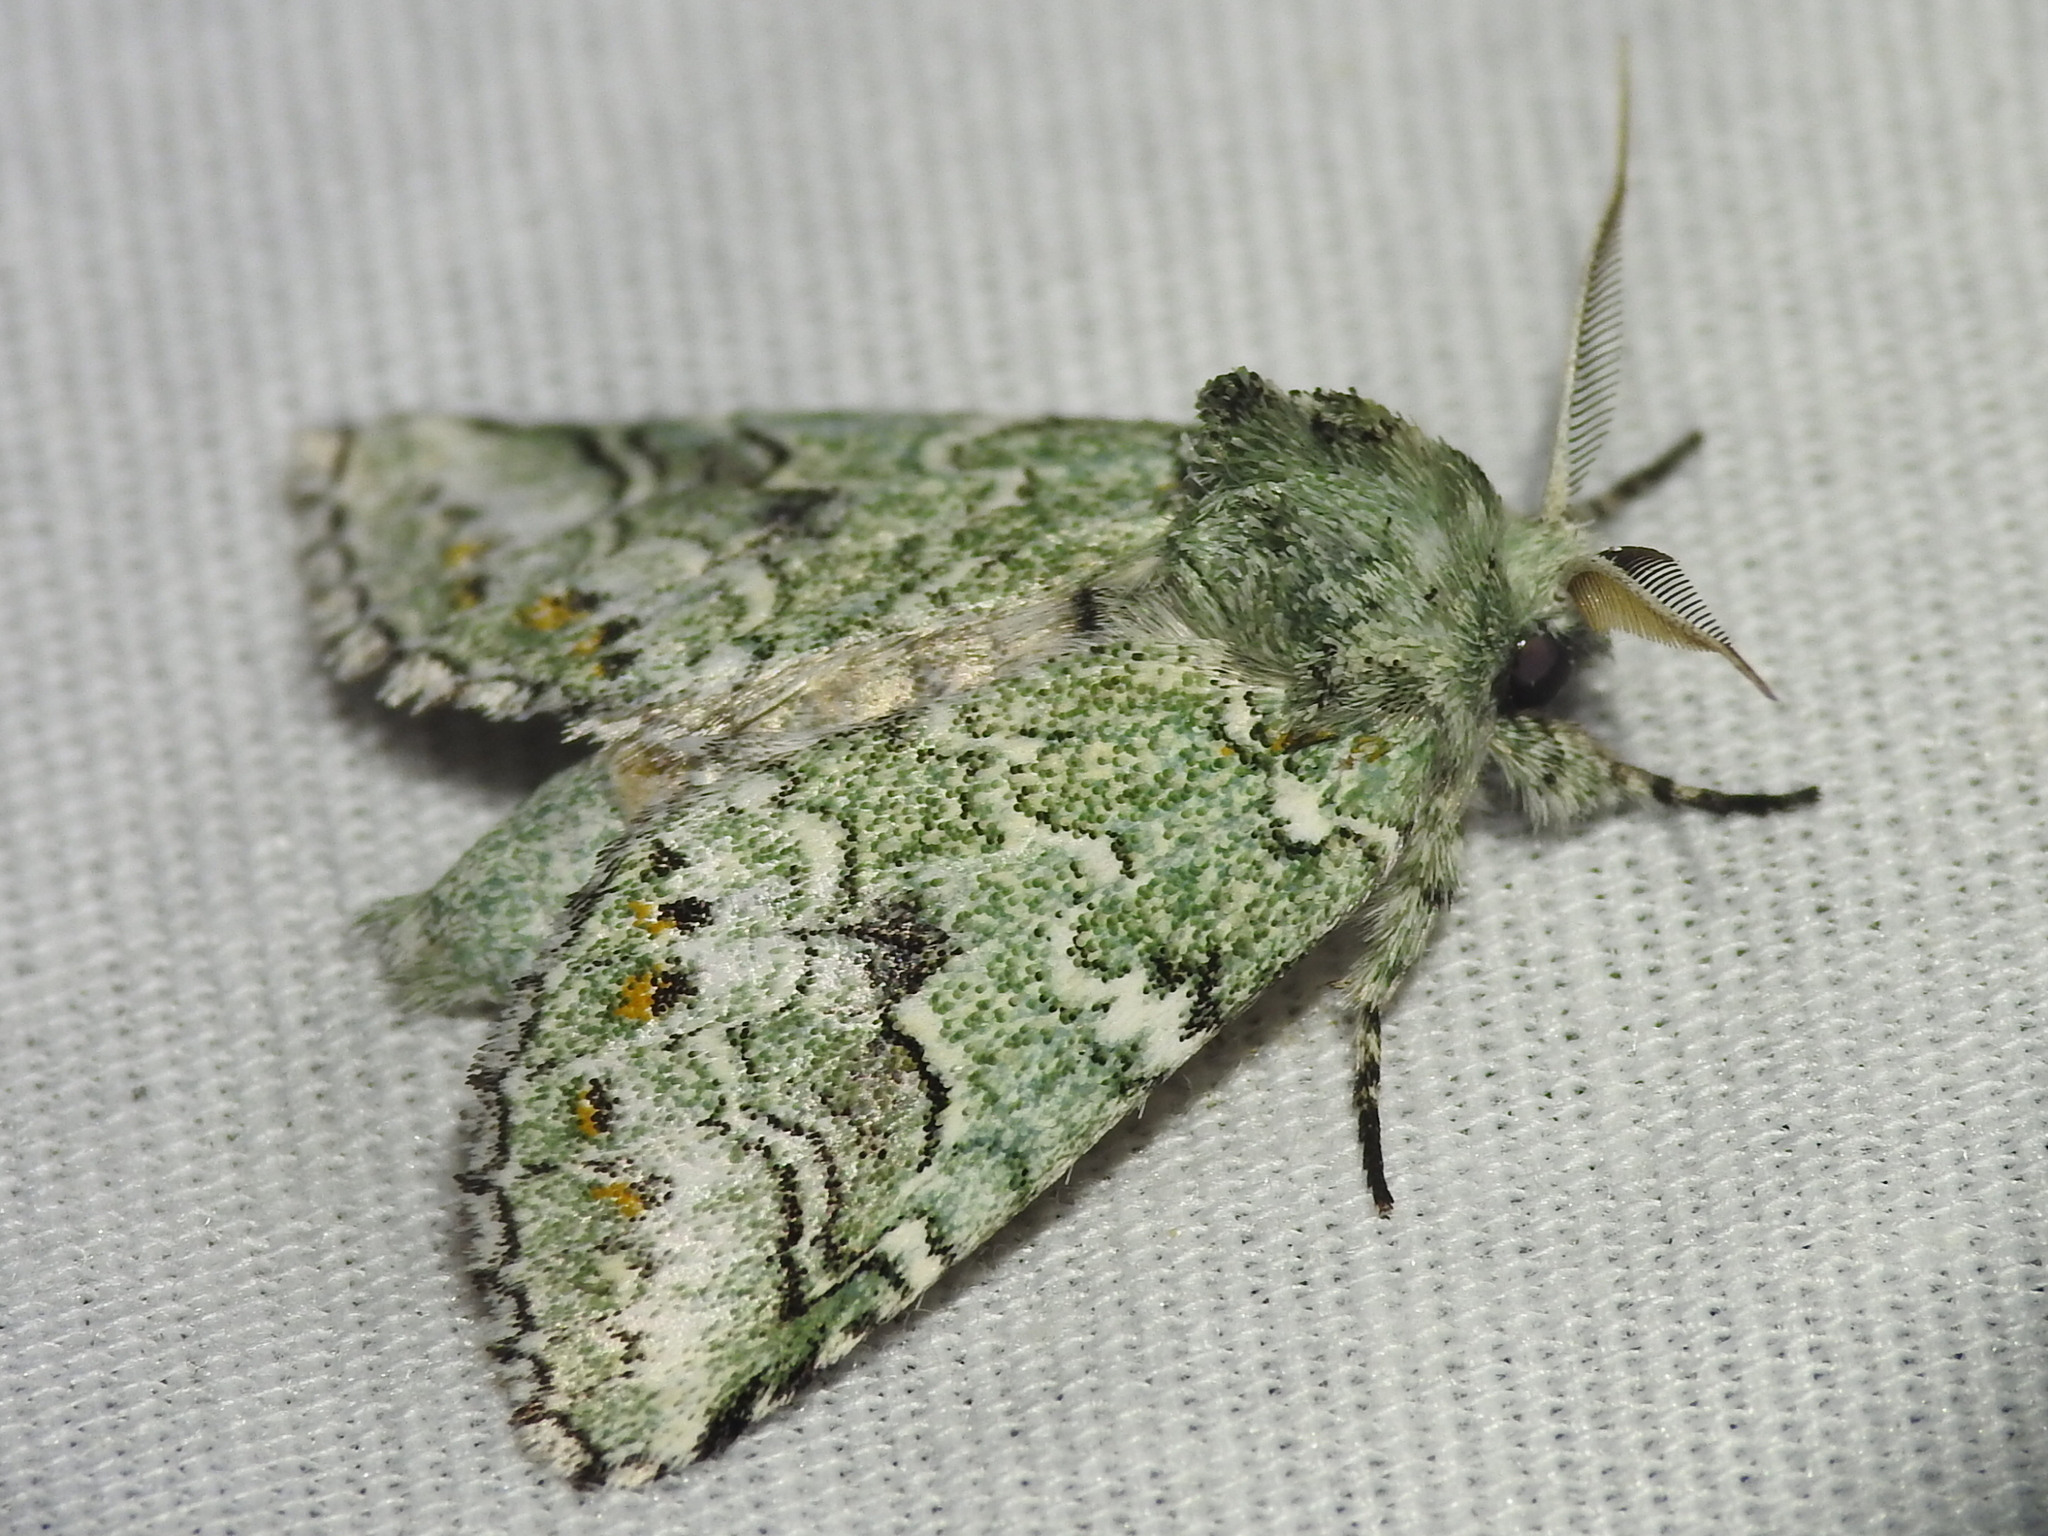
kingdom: Animalia
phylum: Arthropoda
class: Insecta
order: Lepidoptera
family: Notodontidae
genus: Litodonta
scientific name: Litodonta hydromeli
